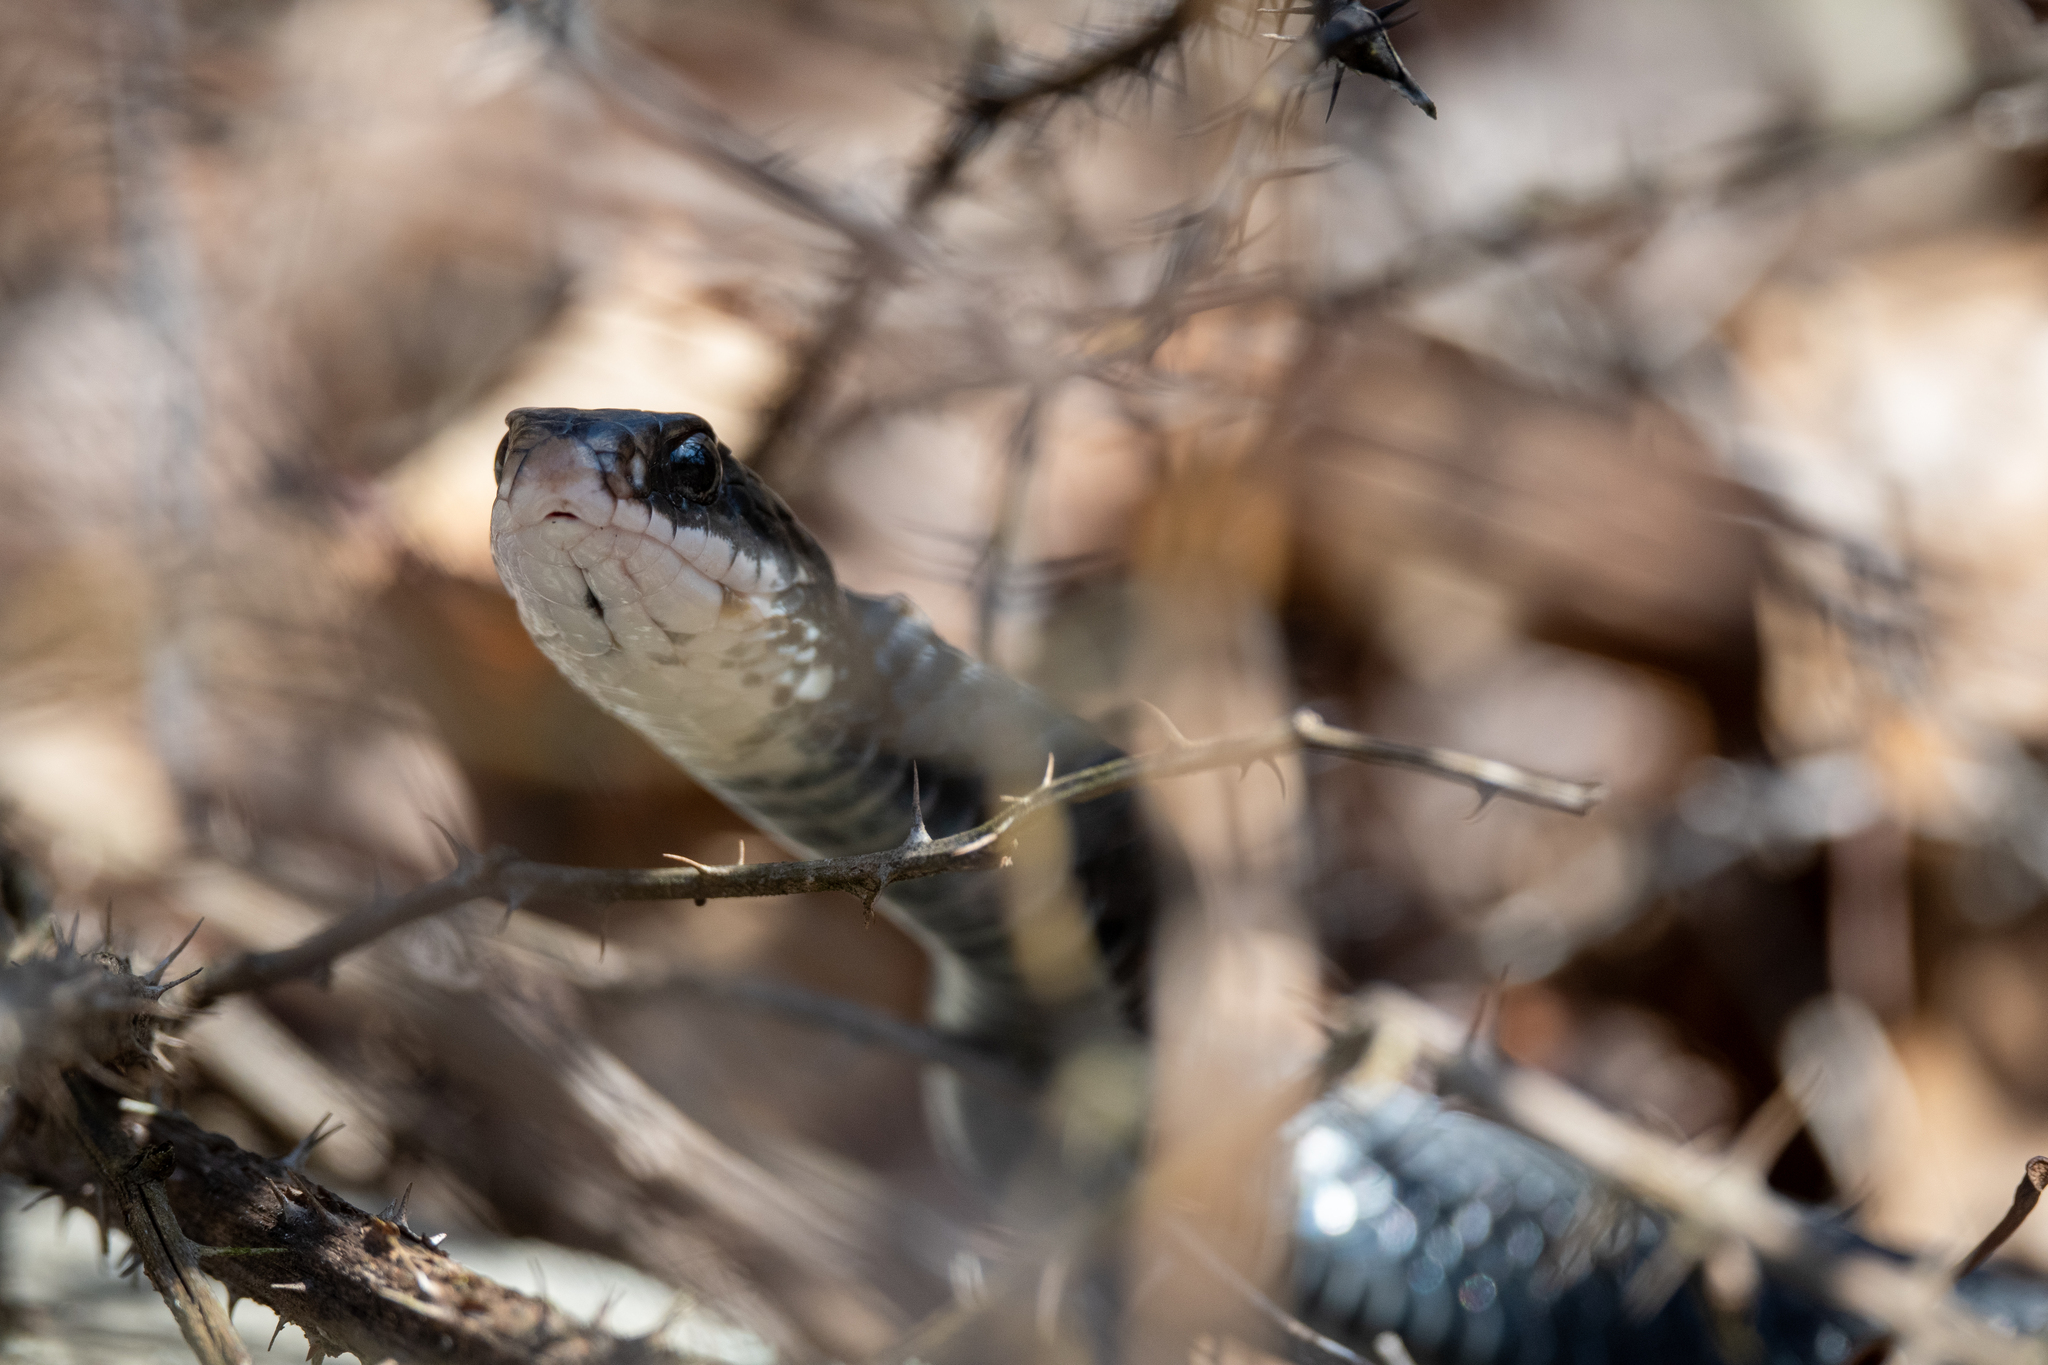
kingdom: Animalia
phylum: Chordata
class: Squamata
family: Colubridae
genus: Coluber
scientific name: Coluber constrictor
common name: Eastern racer
